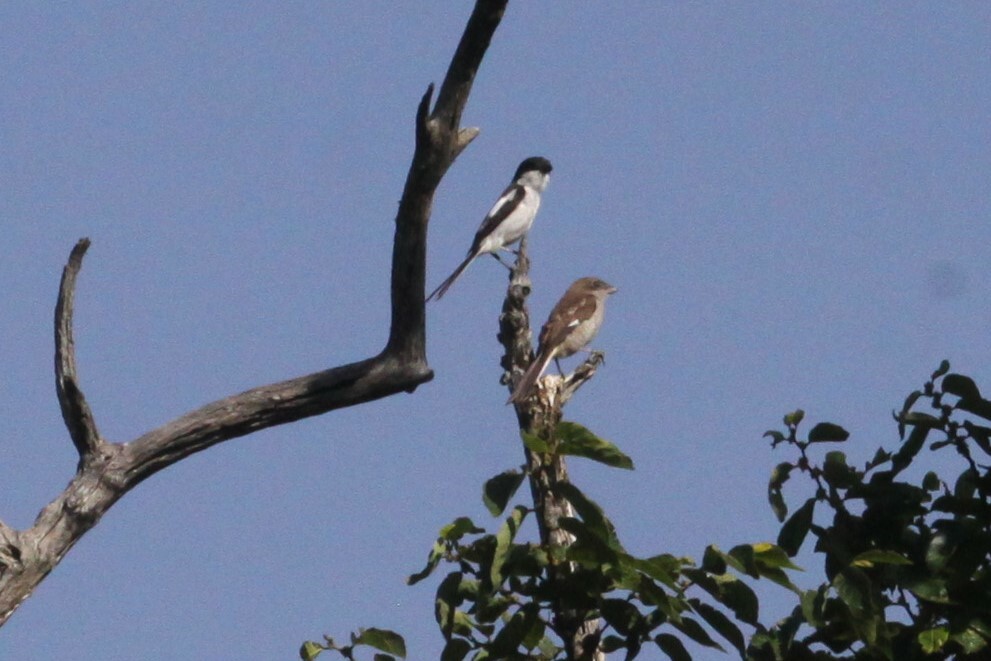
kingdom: Animalia
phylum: Chordata
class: Aves
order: Passeriformes
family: Laniidae
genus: Lanius
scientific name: Lanius collaris
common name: Southern fiscal
